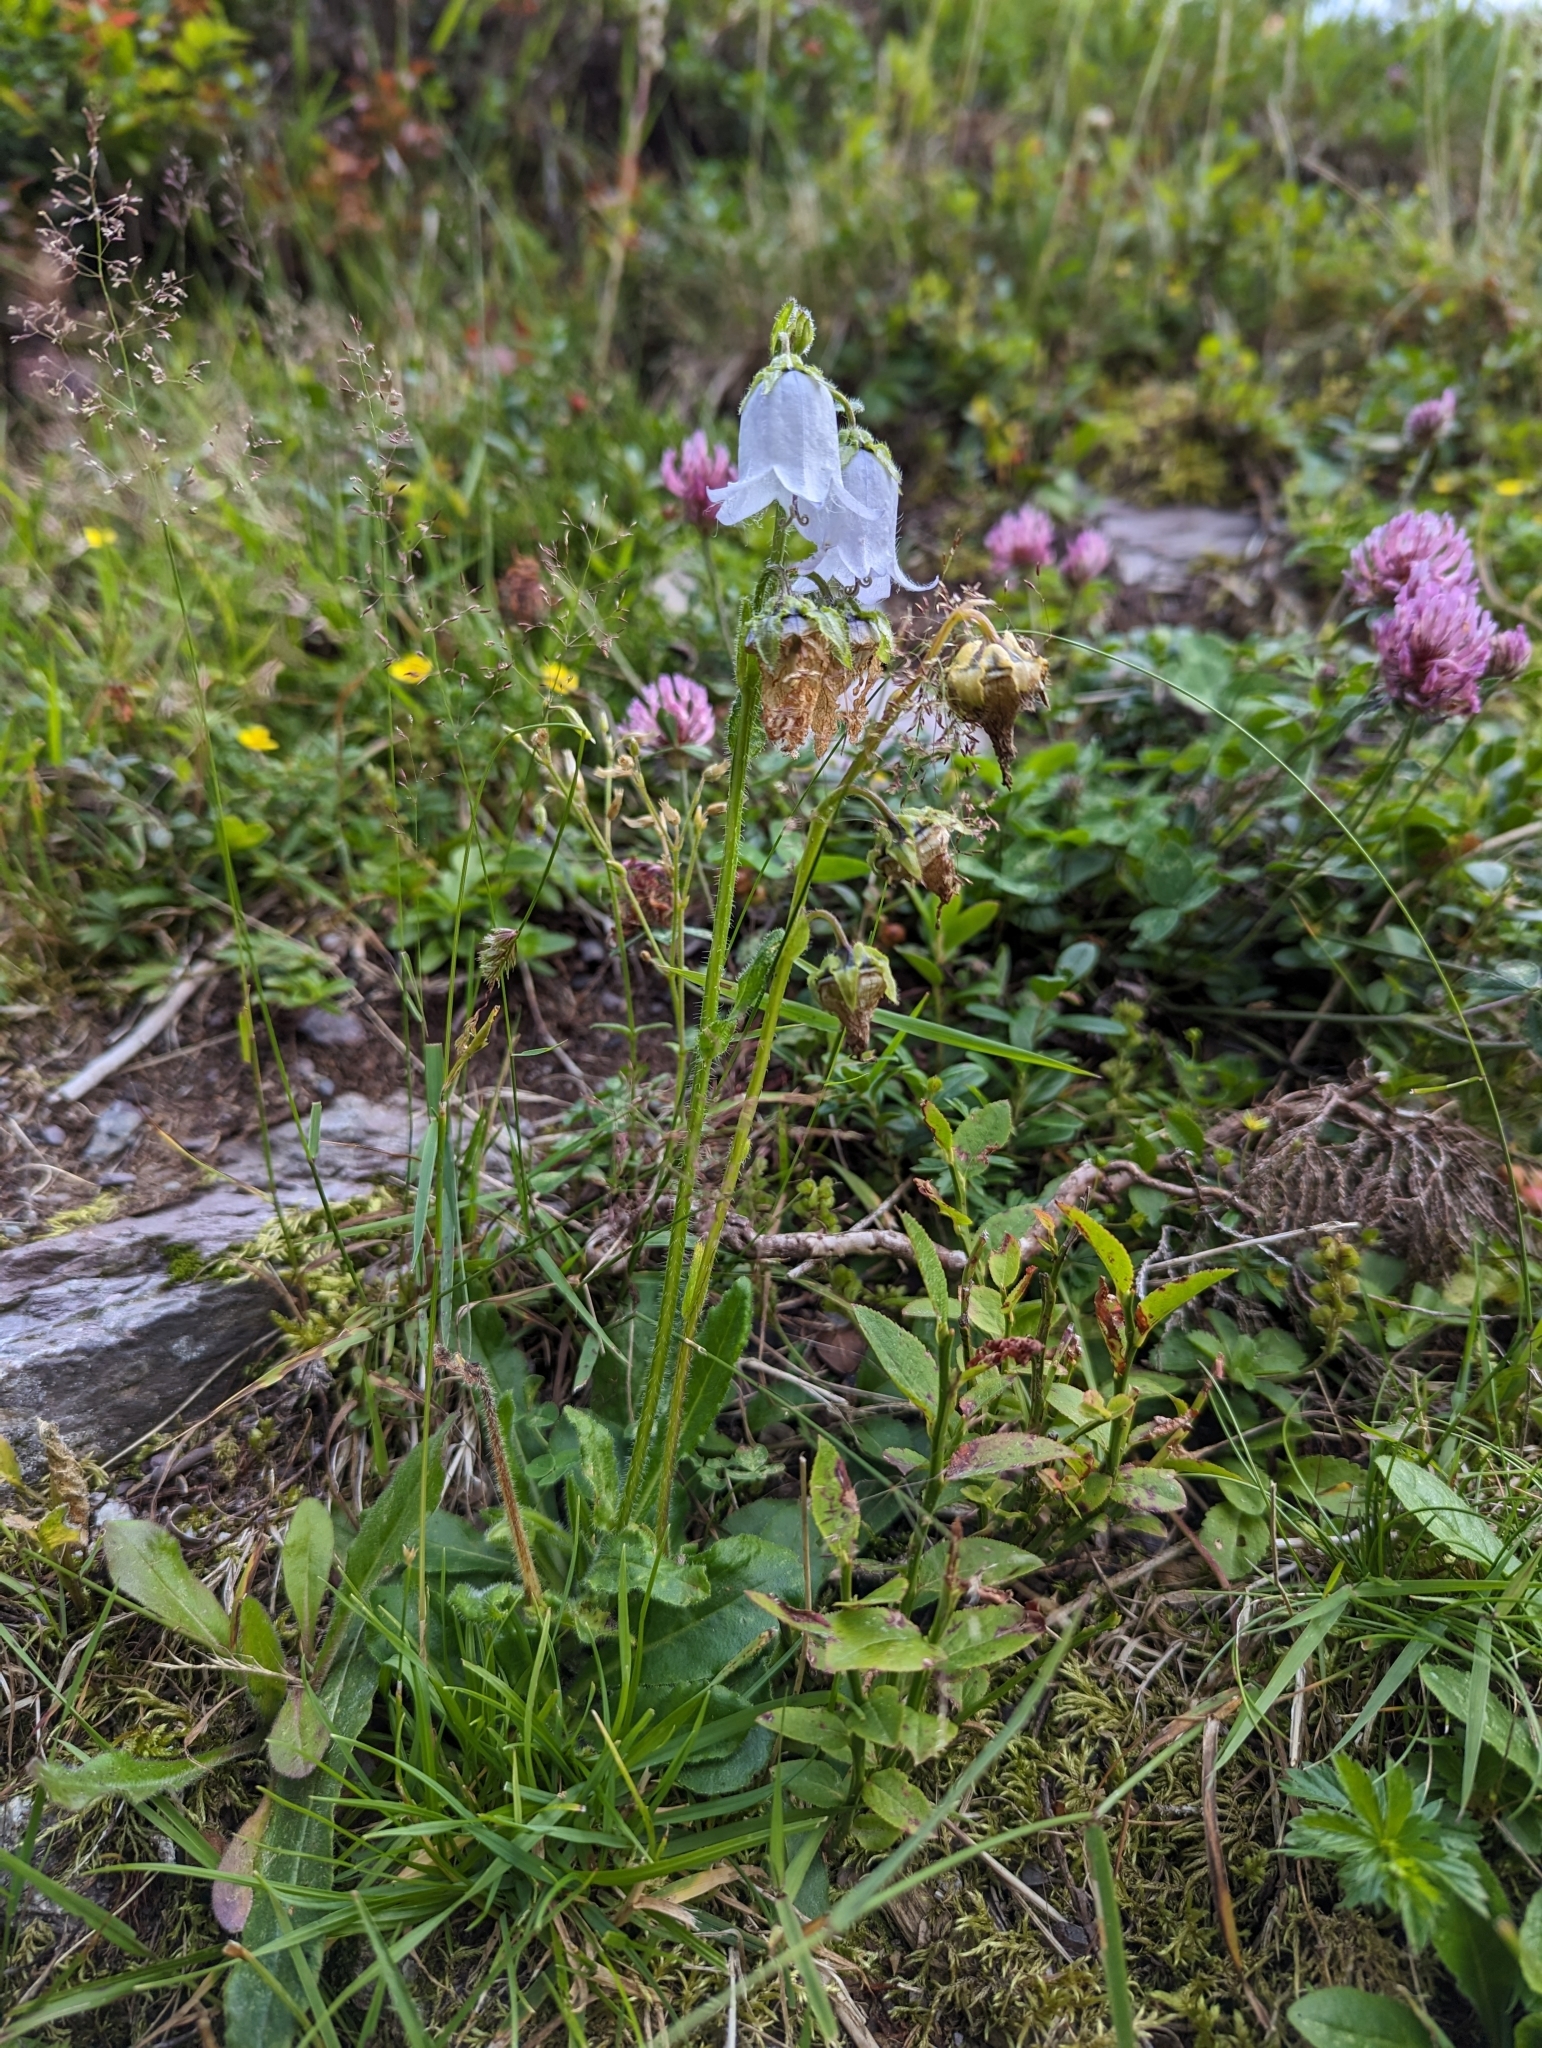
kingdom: Plantae
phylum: Tracheophyta
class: Magnoliopsida
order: Asterales
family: Campanulaceae
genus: Campanula
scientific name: Campanula barbata
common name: Bearded bellflower
